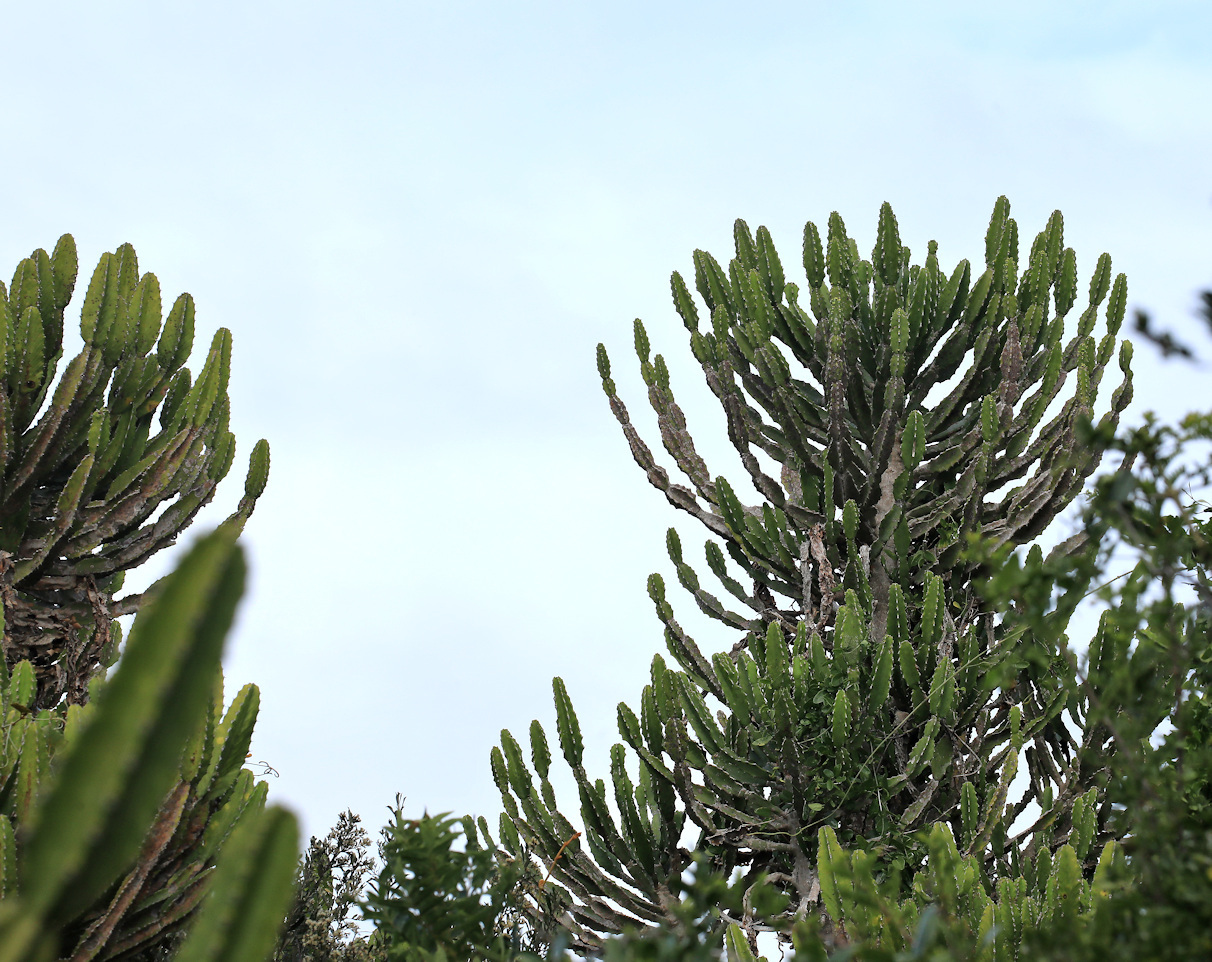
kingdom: Plantae
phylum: Tracheophyta
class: Magnoliopsida
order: Malpighiales
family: Euphorbiaceae
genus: Euphorbia
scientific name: Euphorbia triangularis
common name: Chandelier tree
